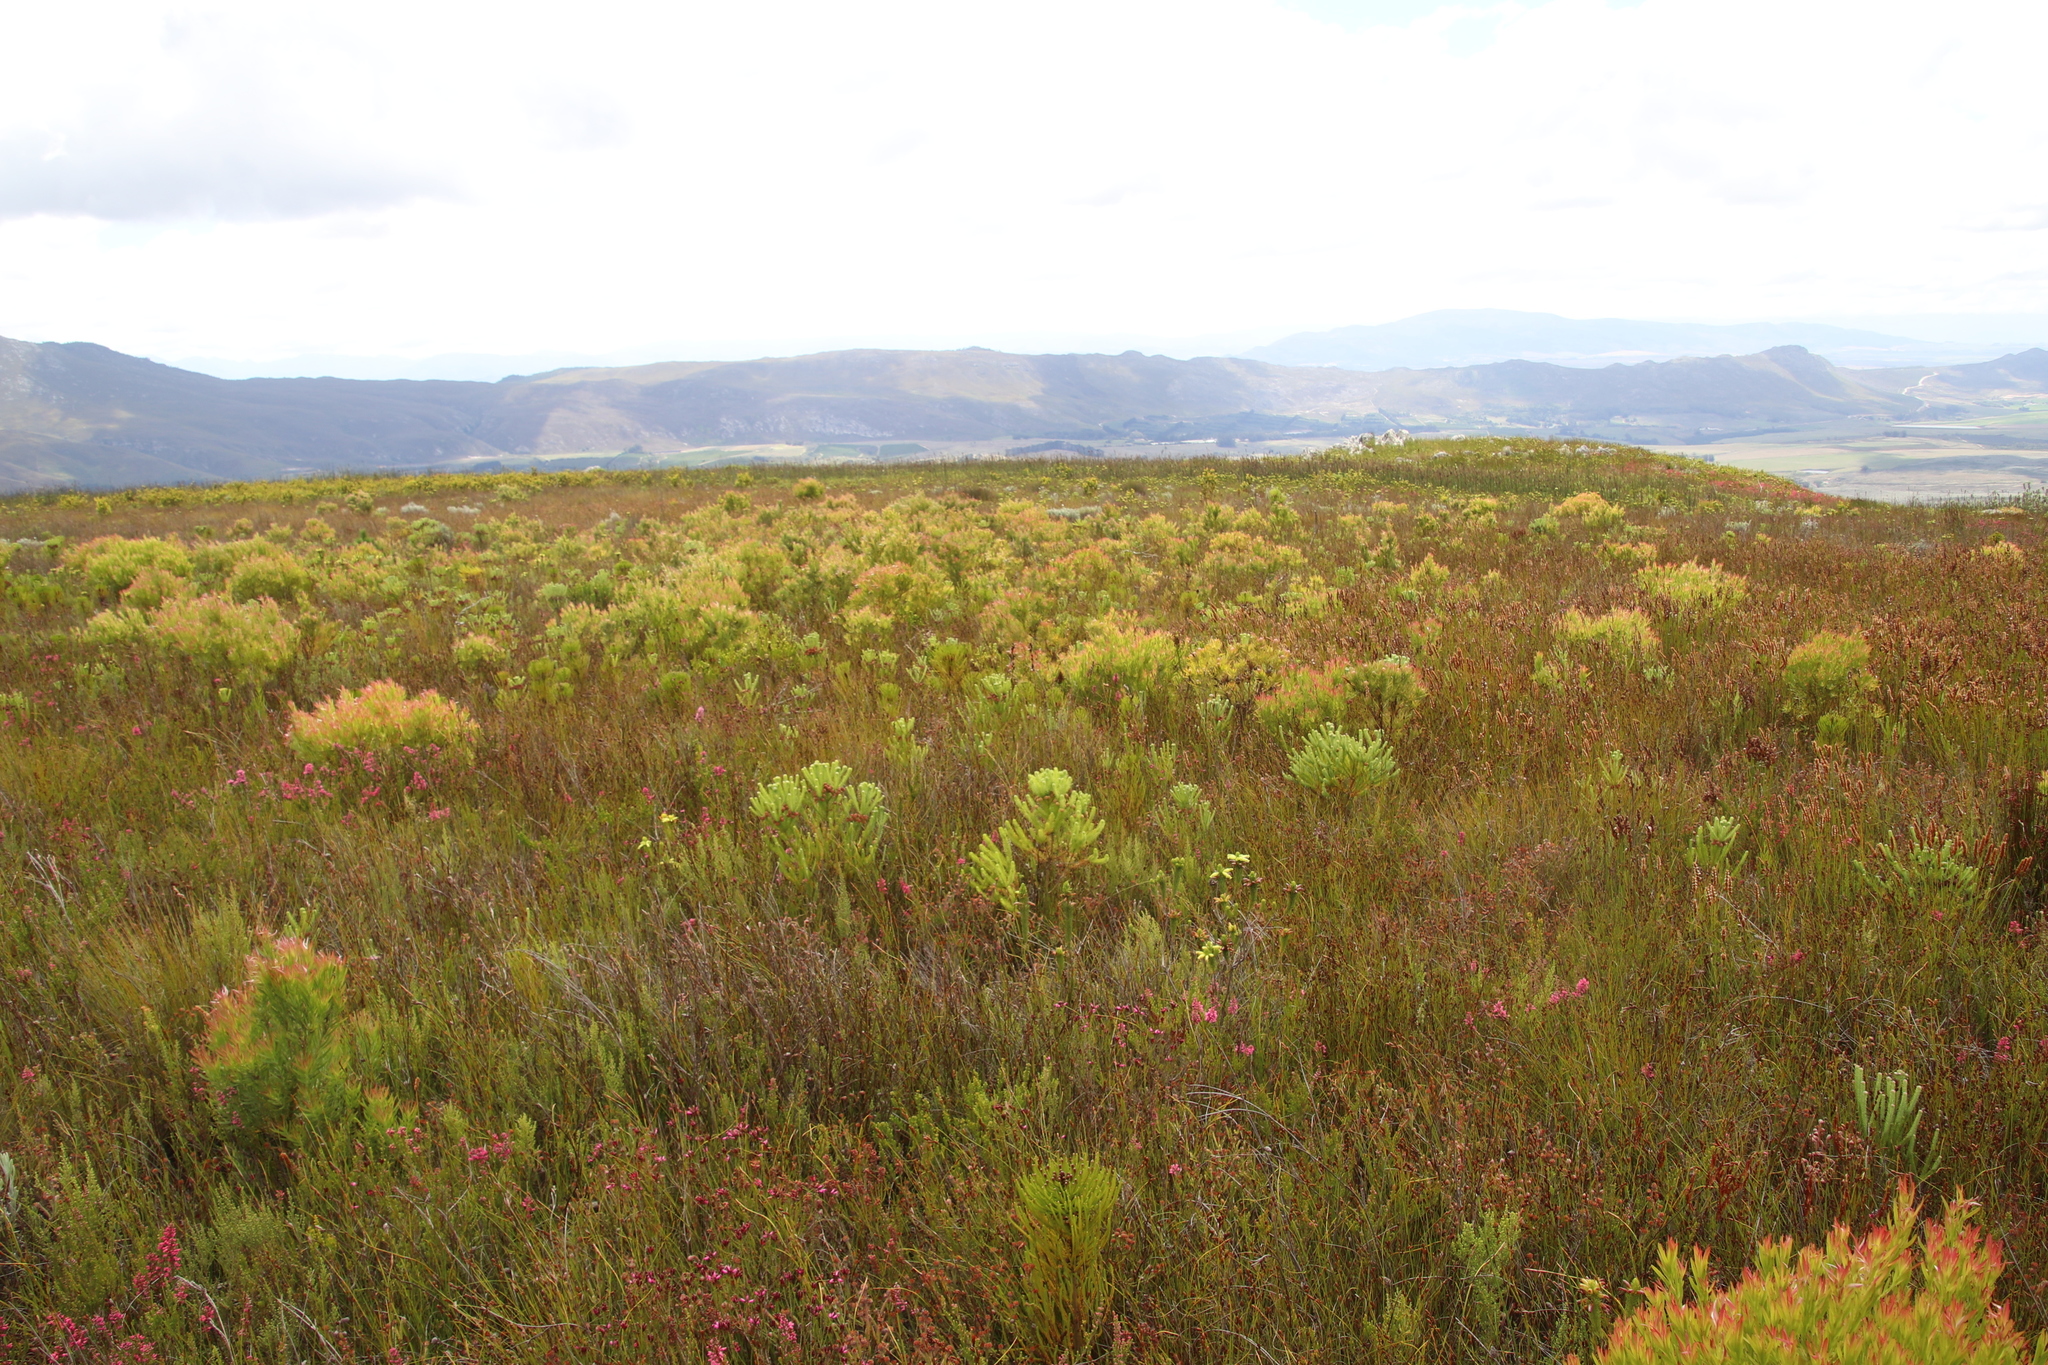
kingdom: Plantae
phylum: Tracheophyta
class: Magnoliopsida
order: Bruniales
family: Bruniaceae
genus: Berzelia
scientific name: Berzelia squarrosa
